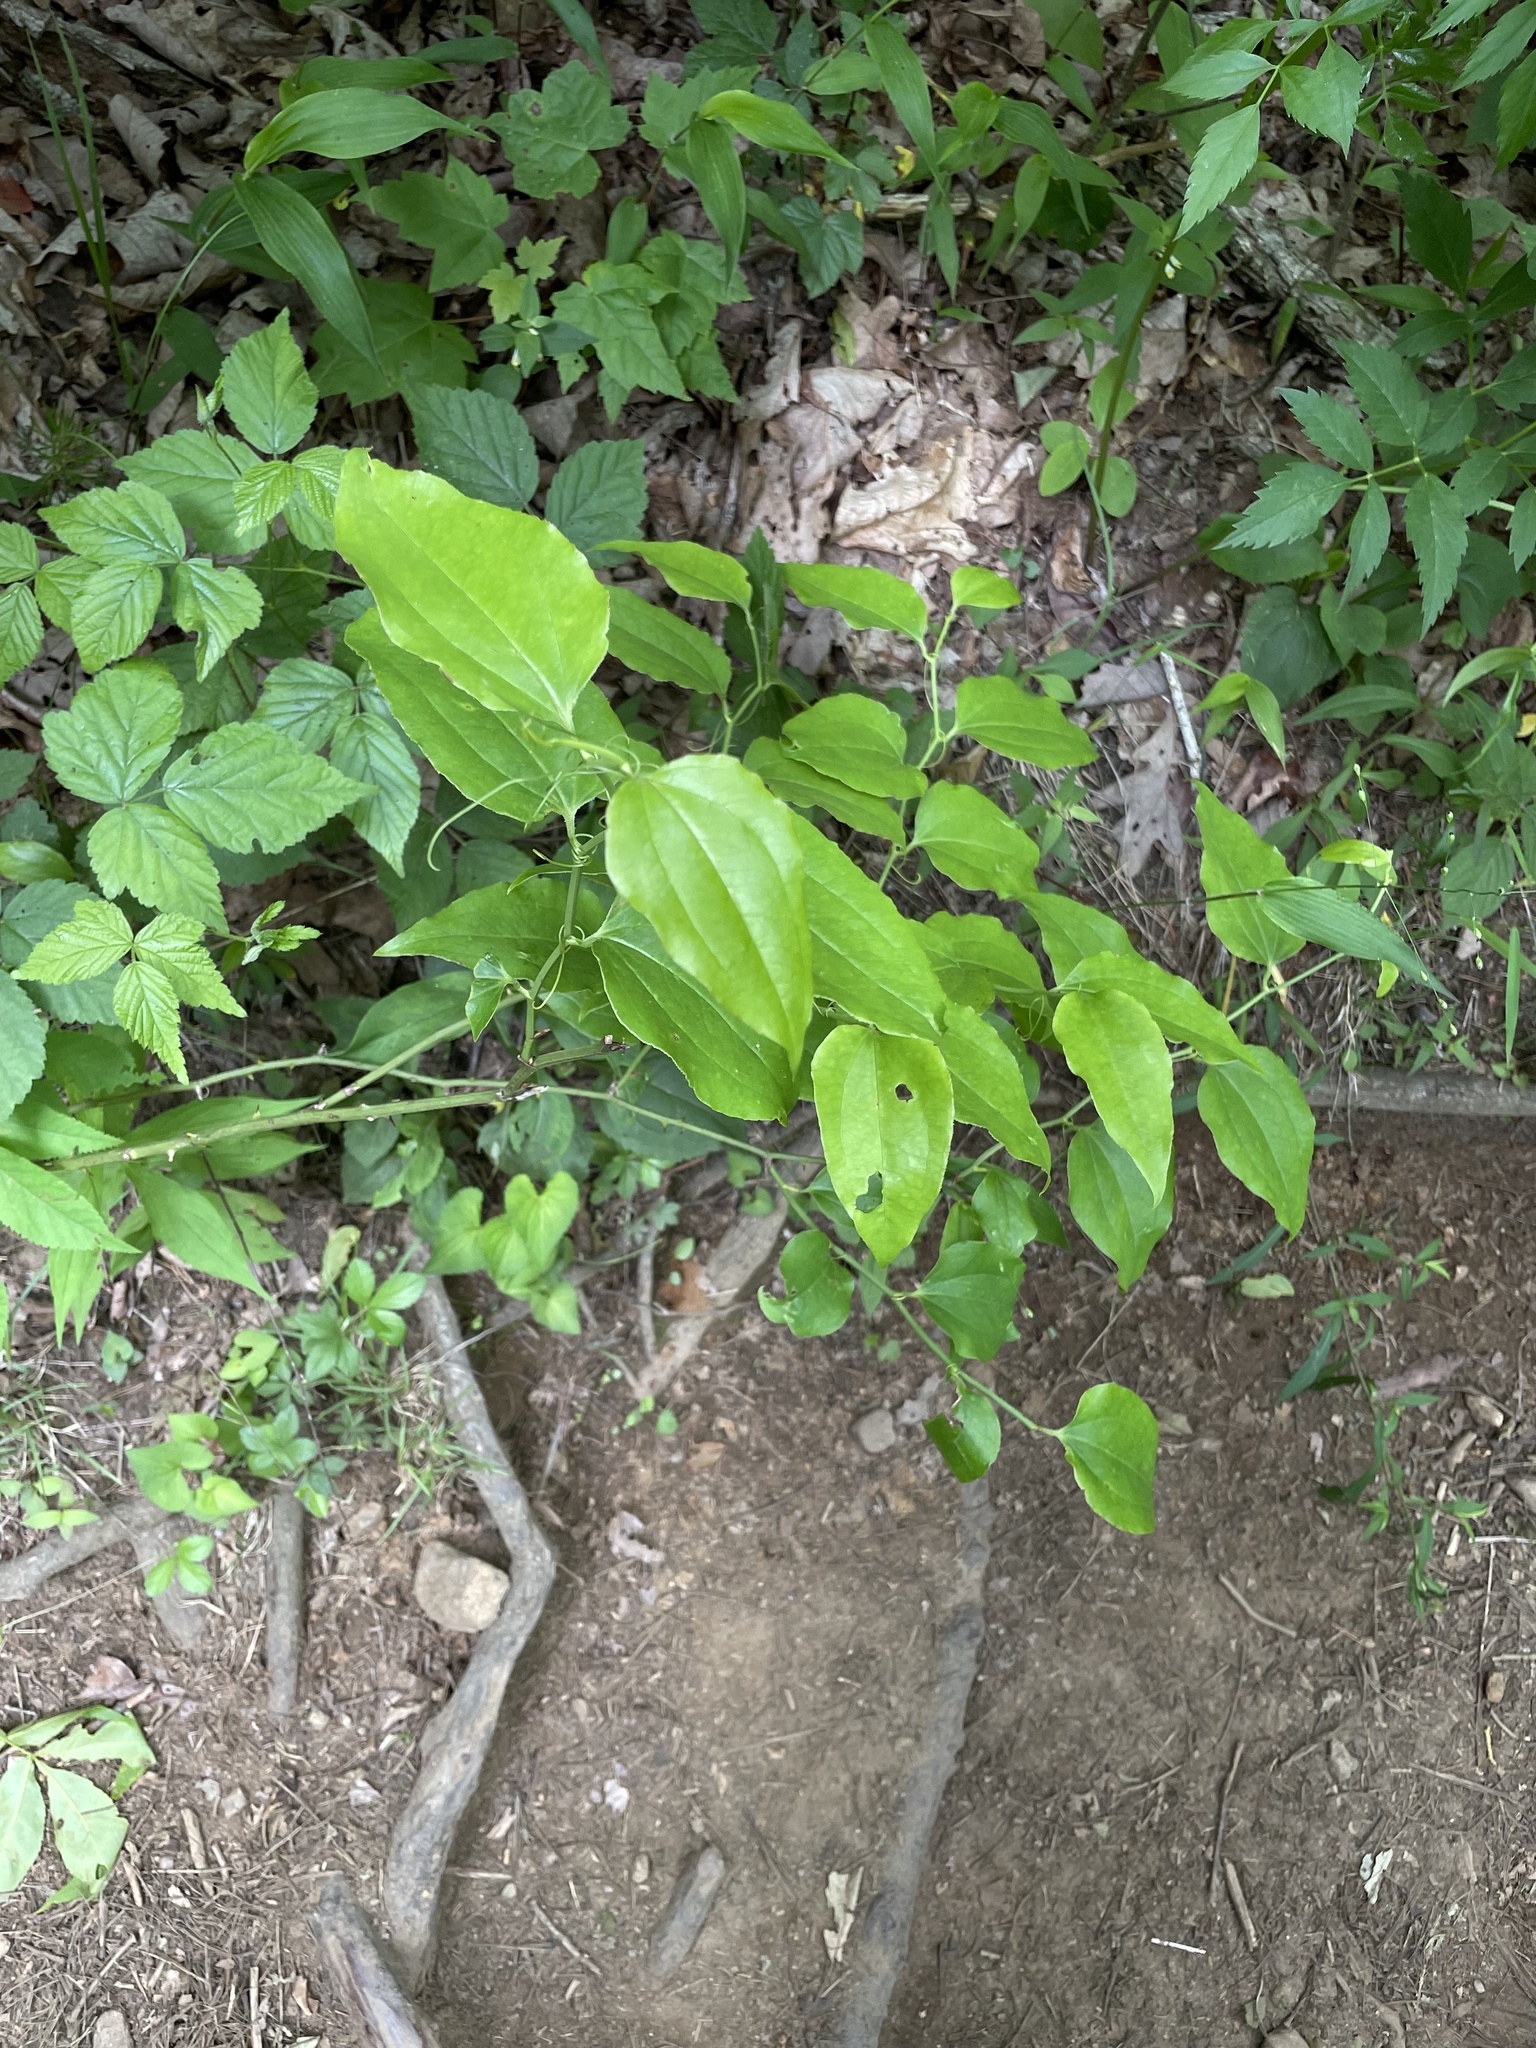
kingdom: Plantae
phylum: Tracheophyta
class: Liliopsida
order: Liliales
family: Smilacaceae
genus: Smilax
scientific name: Smilax rotundifolia
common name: Bullbriar
